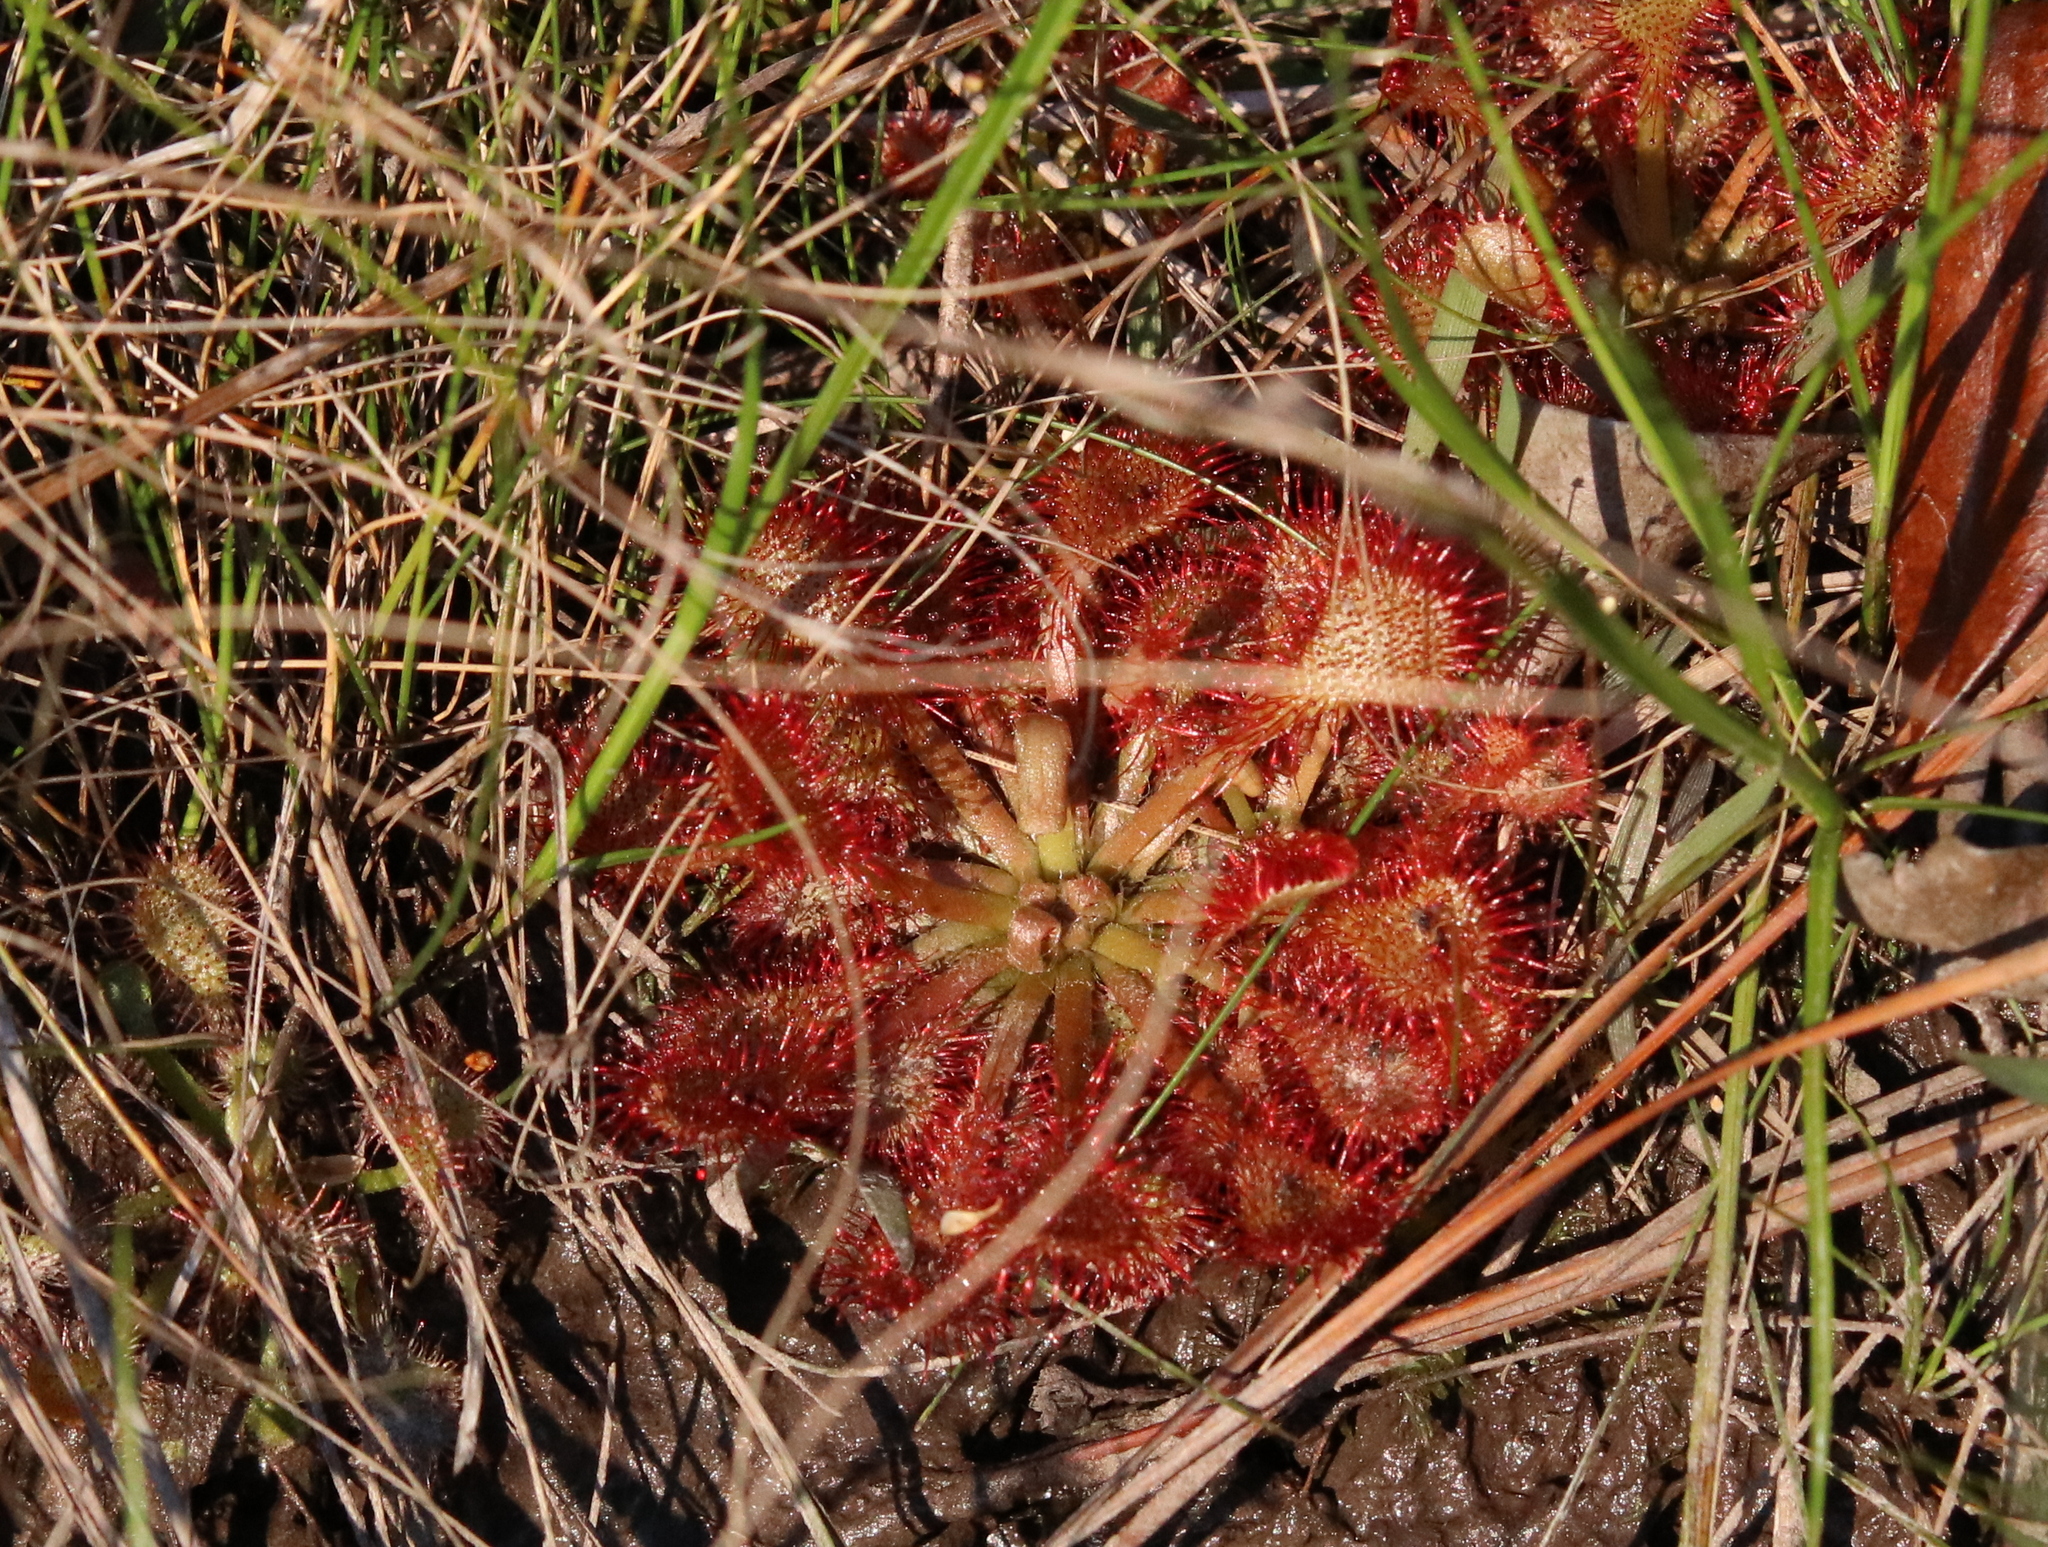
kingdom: Plantae
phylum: Tracheophyta
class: Magnoliopsida
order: Caryophyllales
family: Droseraceae
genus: Drosera
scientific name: Drosera capillaris
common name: Pink sundew
